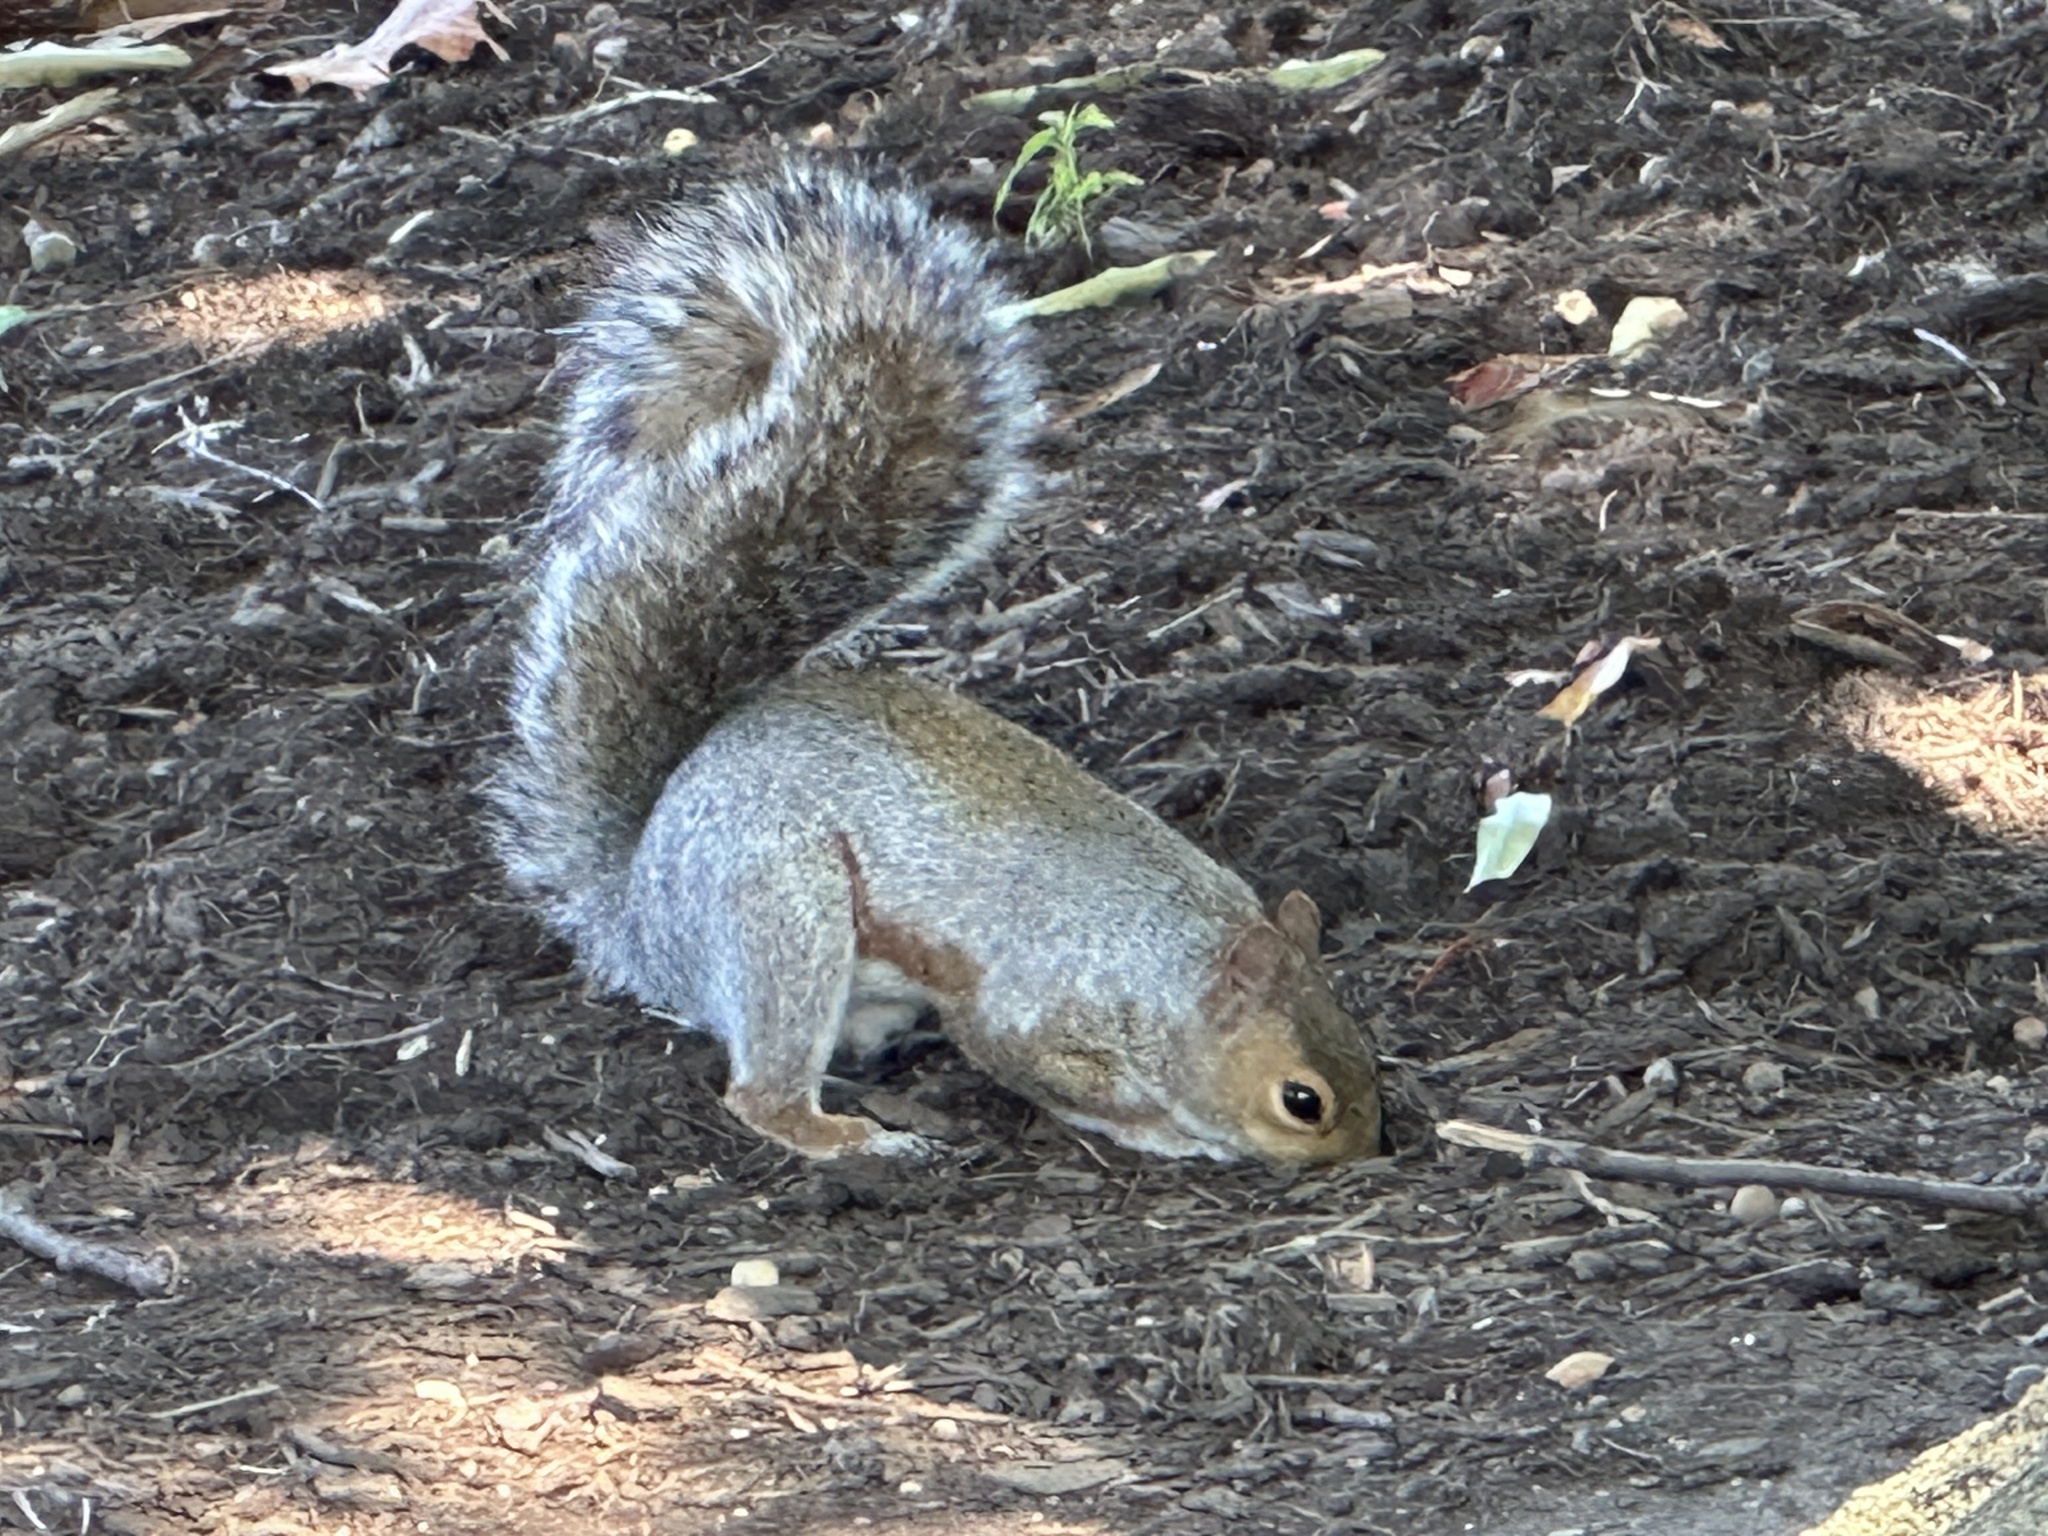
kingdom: Animalia
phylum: Chordata
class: Mammalia
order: Rodentia
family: Sciuridae
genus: Sciurus
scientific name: Sciurus carolinensis
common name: Eastern gray squirrel
